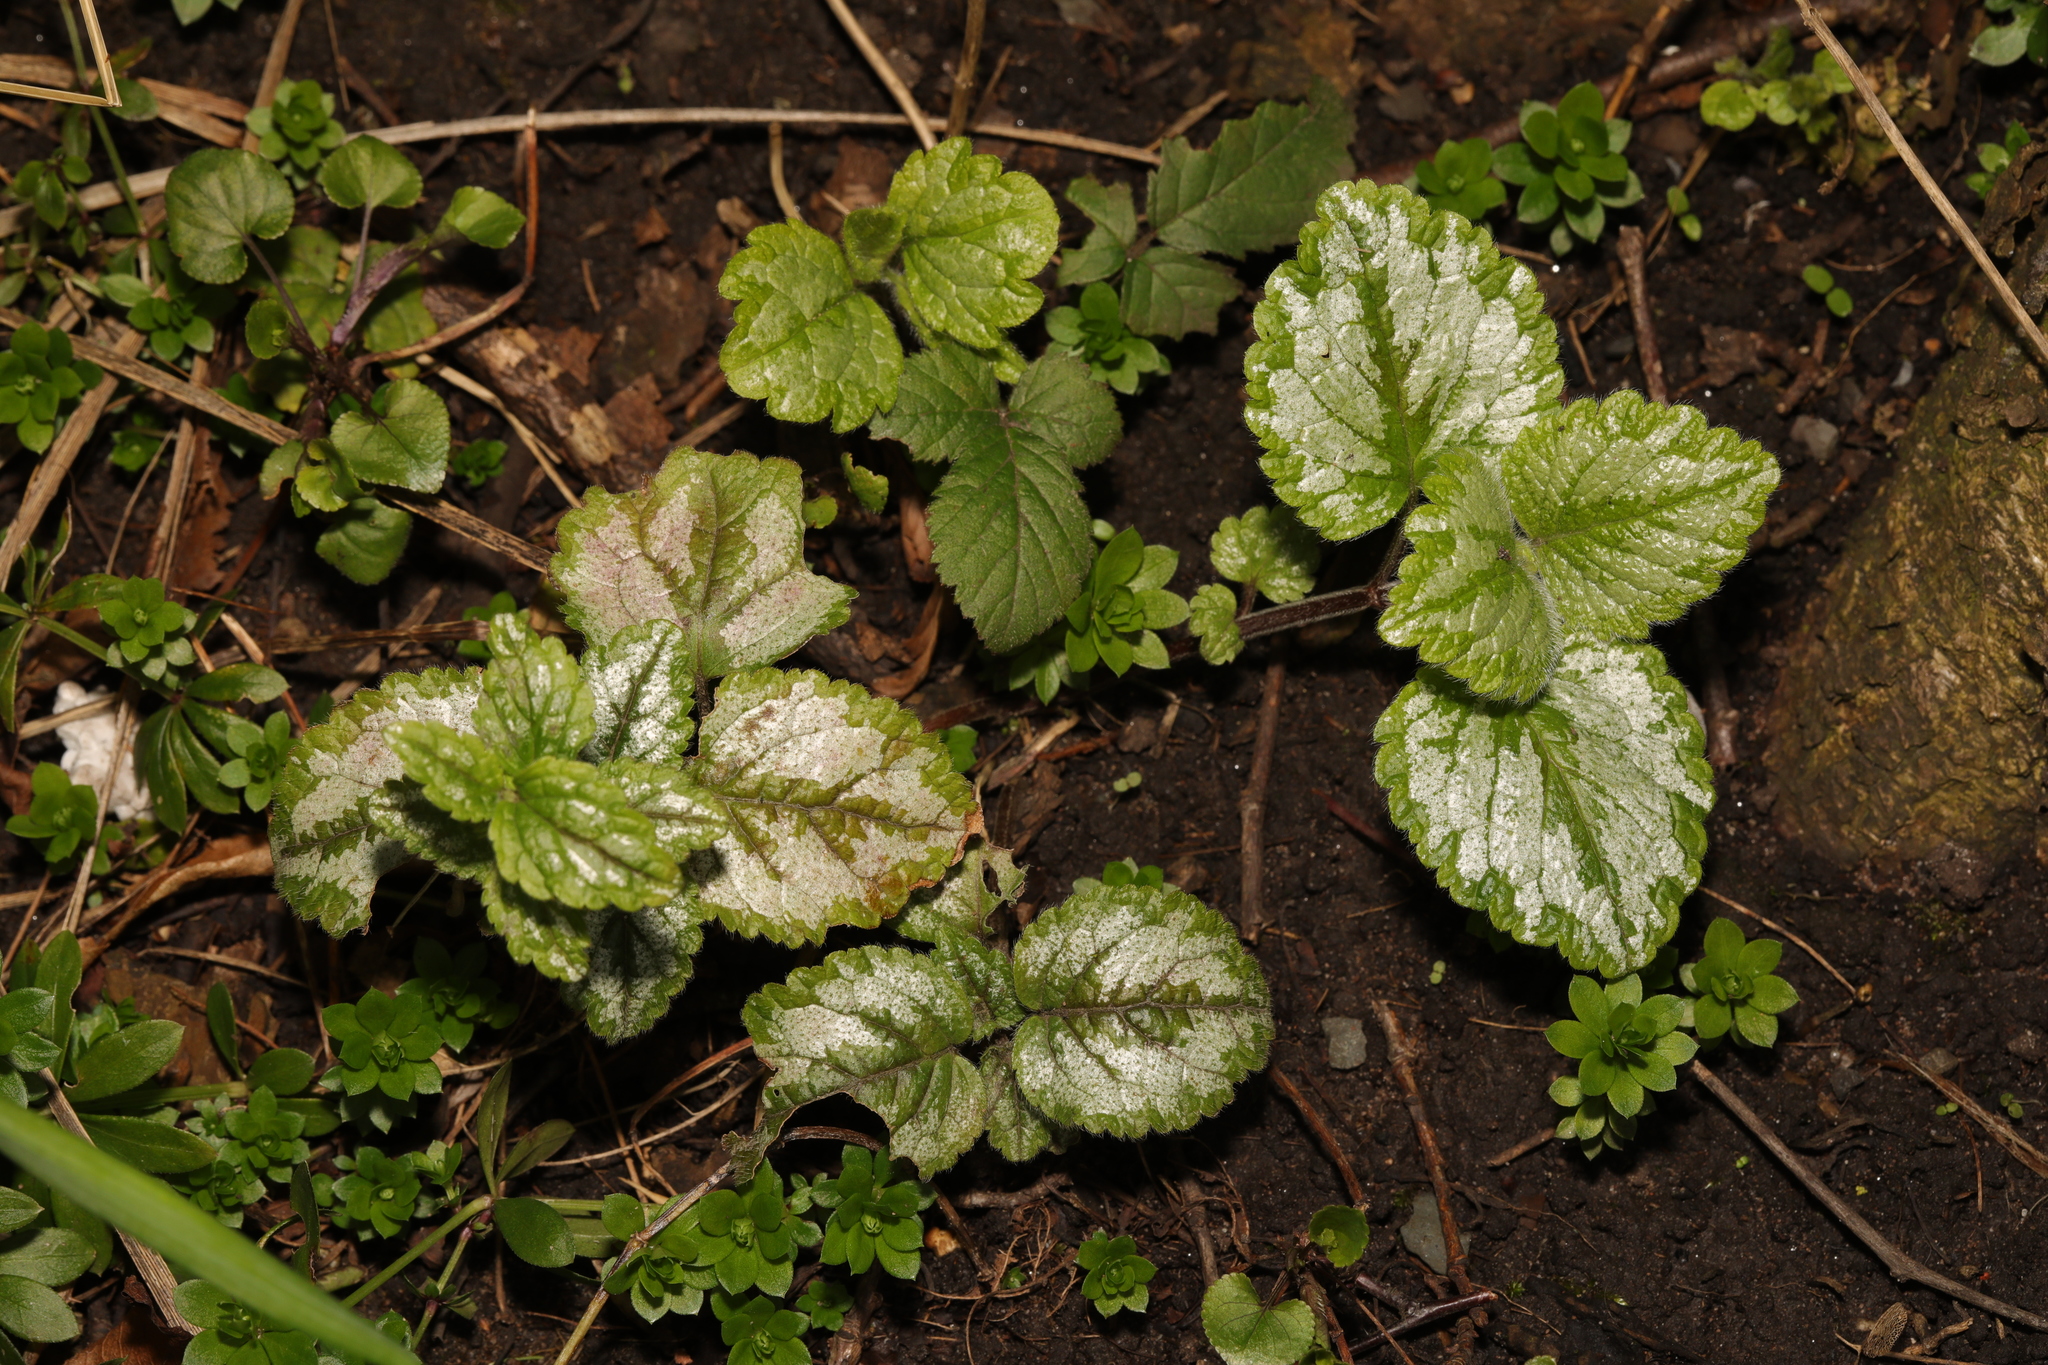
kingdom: Plantae
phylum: Tracheophyta
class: Magnoliopsida
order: Lamiales
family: Lamiaceae
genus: Lamium
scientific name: Lamium galeobdolon
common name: Yellow archangel
